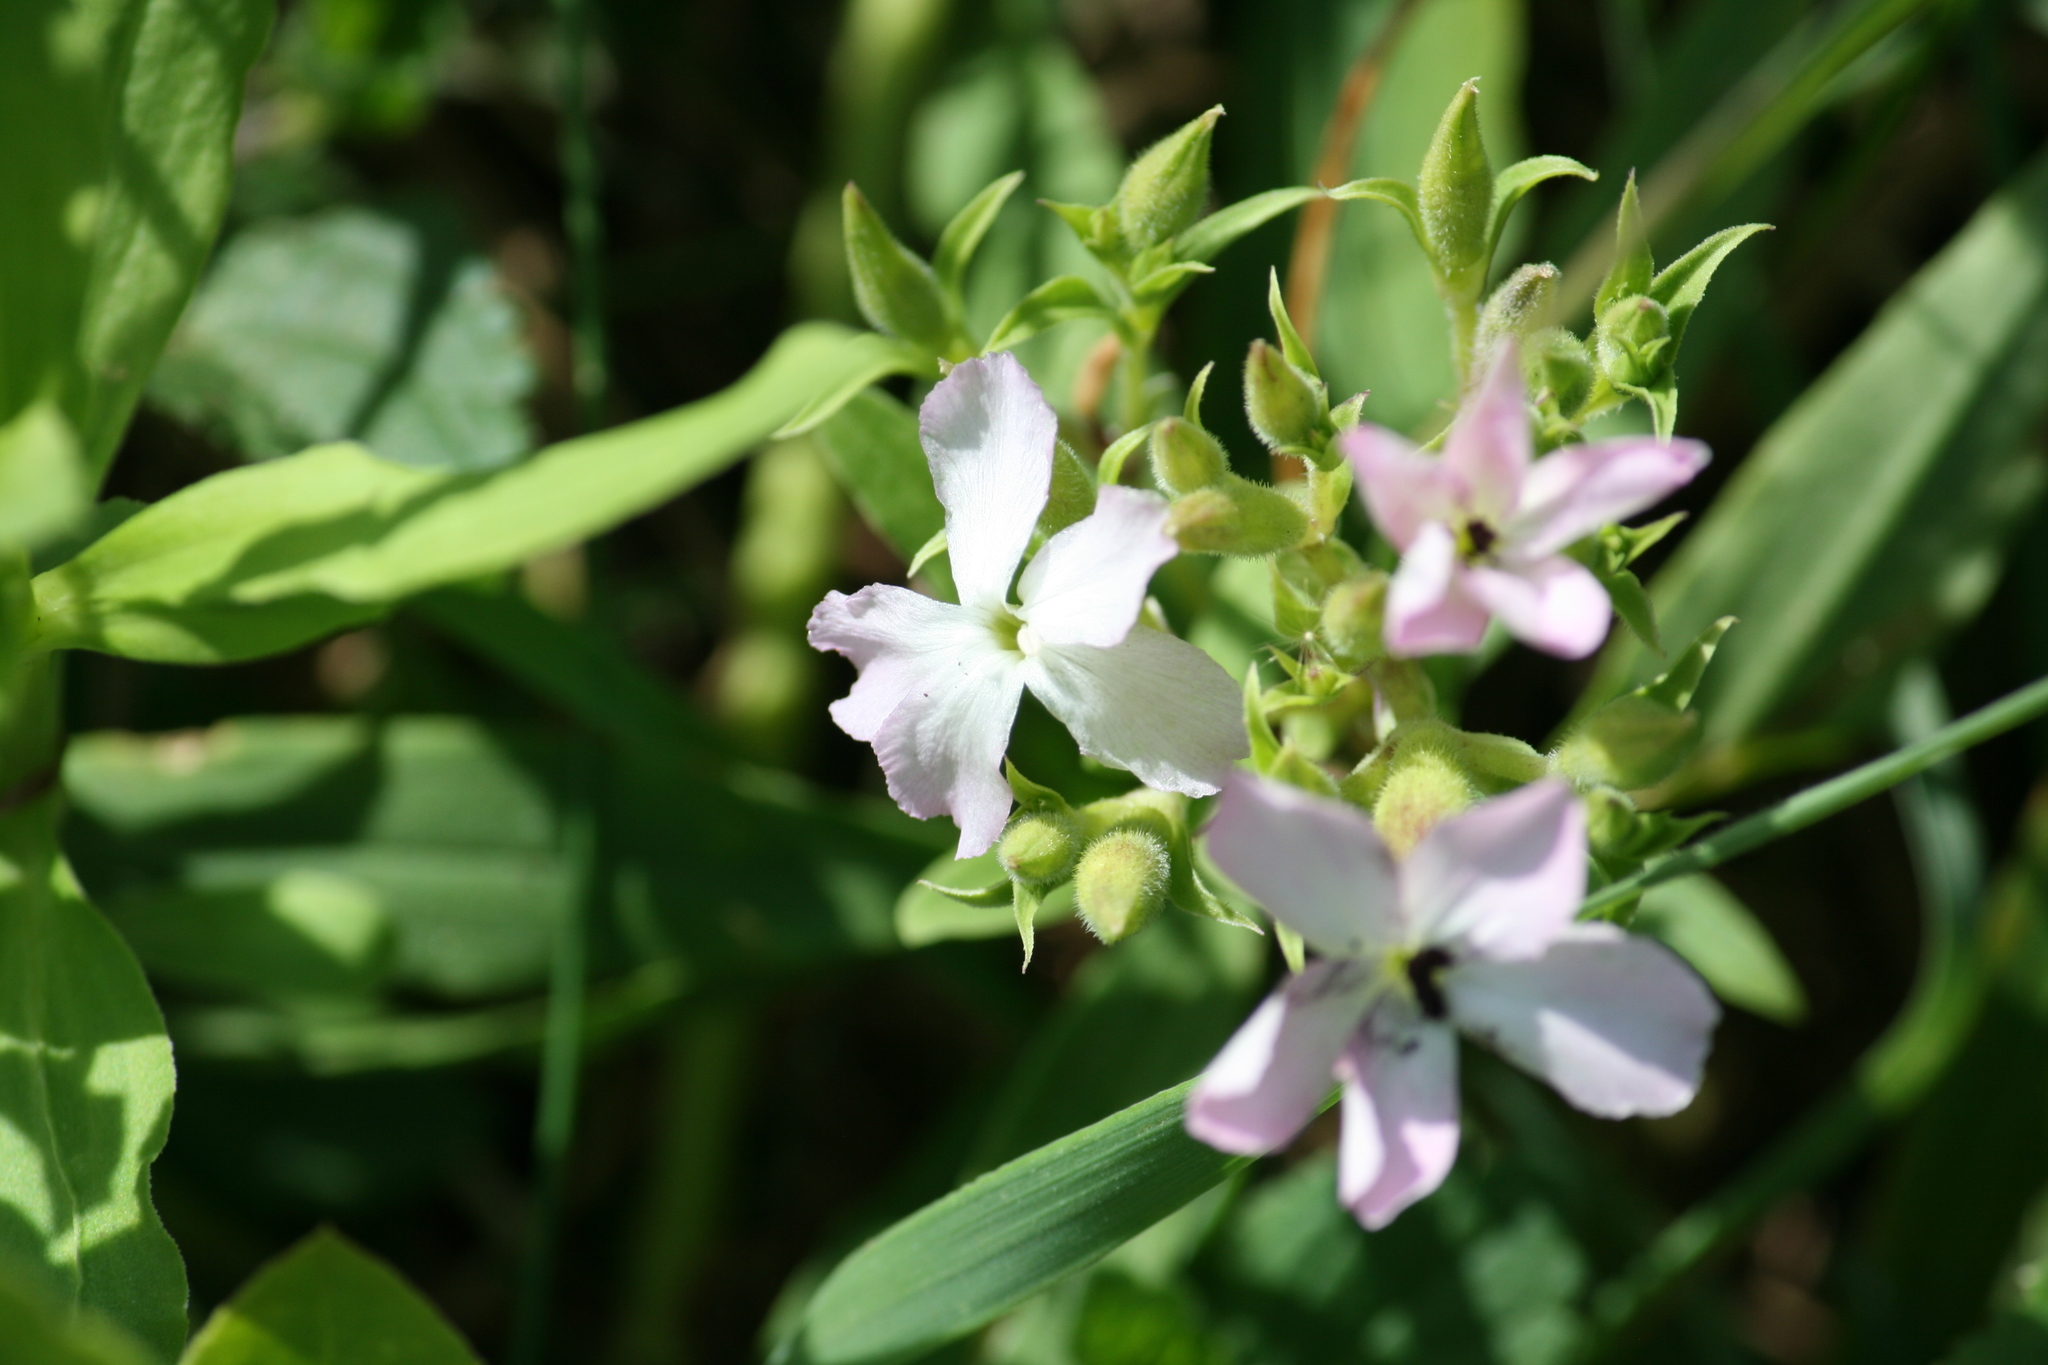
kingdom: Plantae
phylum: Tracheophyta
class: Magnoliopsida
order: Caryophyllales
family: Caryophyllaceae
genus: Saponaria
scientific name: Saponaria officinalis
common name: Soapwort
